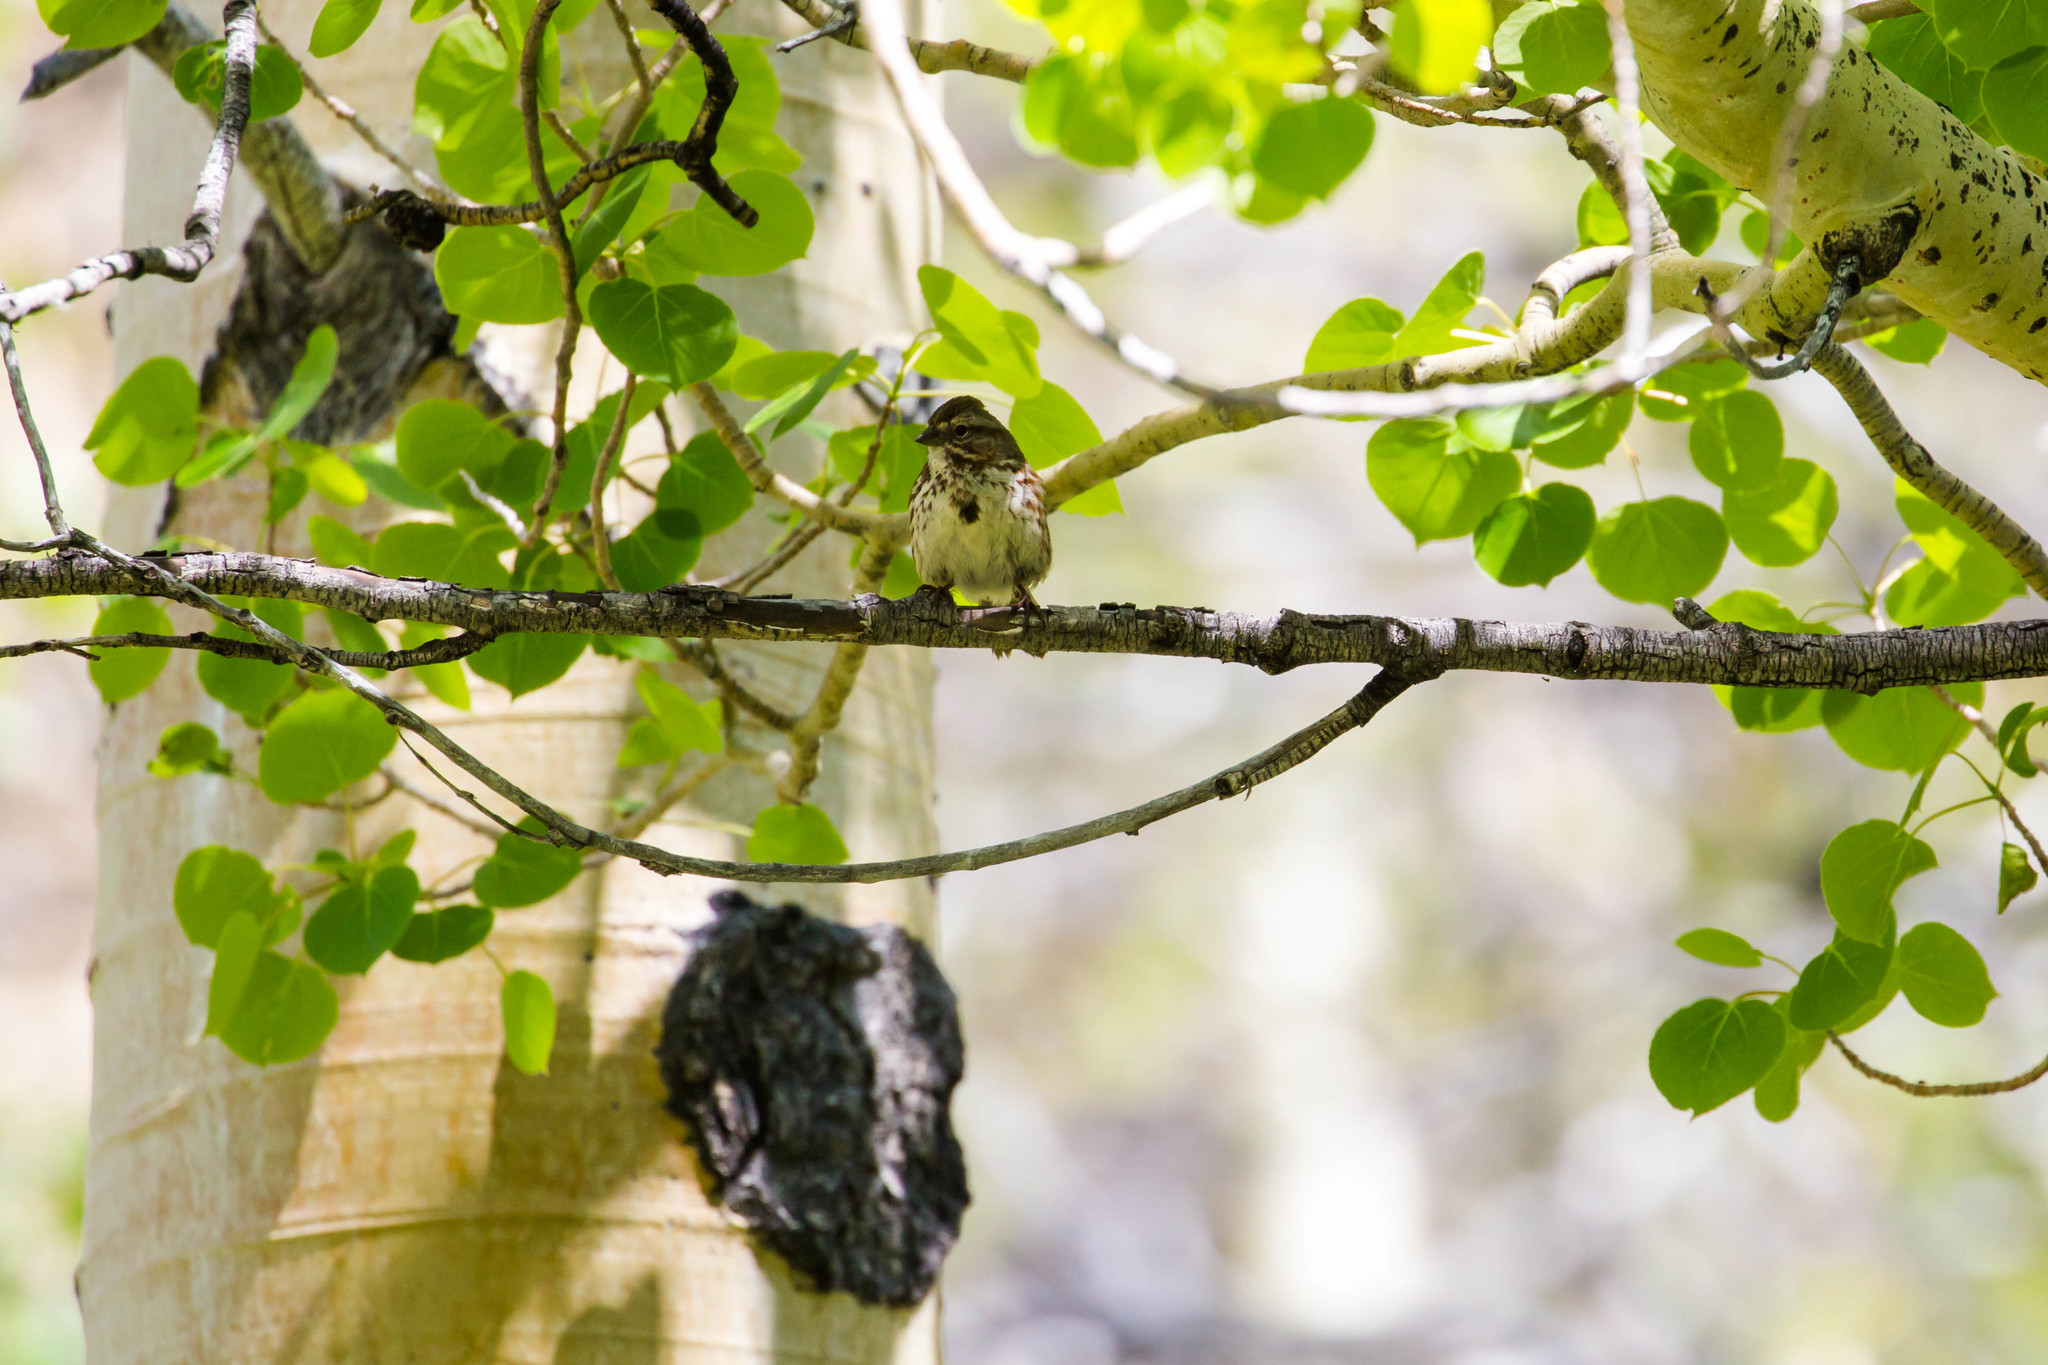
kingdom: Animalia
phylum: Chordata
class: Aves
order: Passeriformes
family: Passerellidae
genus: Melospiza
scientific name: Melospiza melodia
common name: Song sparrow
